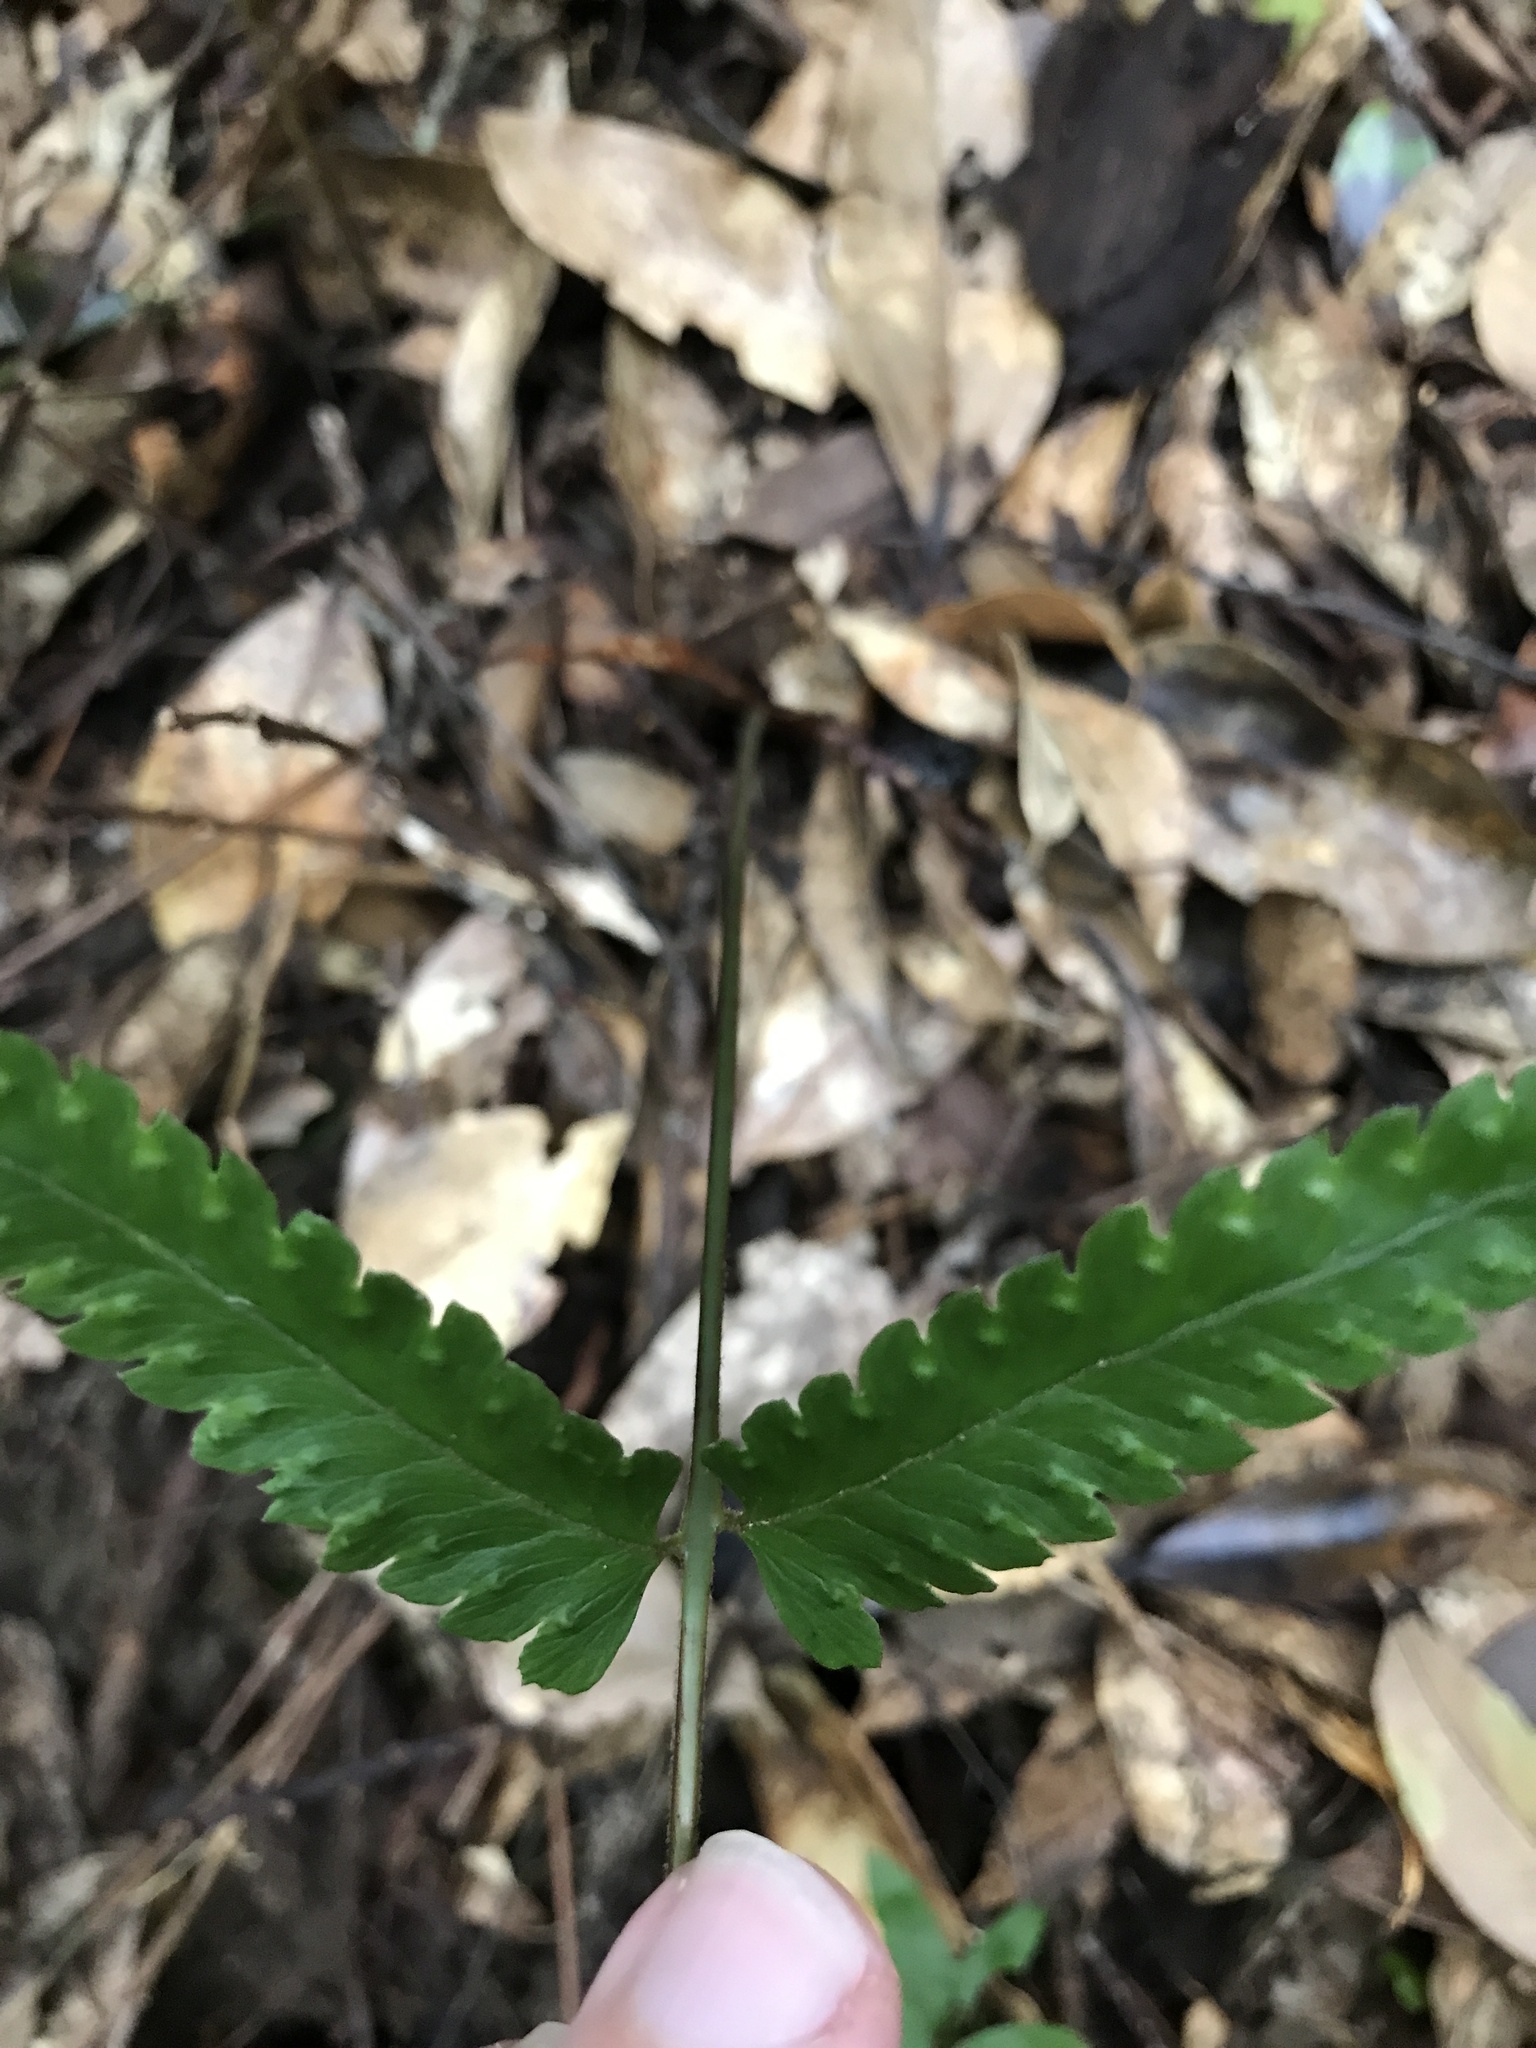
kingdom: Plantae
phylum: Tracheophyta
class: Polypodiopsida
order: Polypodiales
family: Dennstaedtiaceae
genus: Microlepia
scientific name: Microlepia marginata
